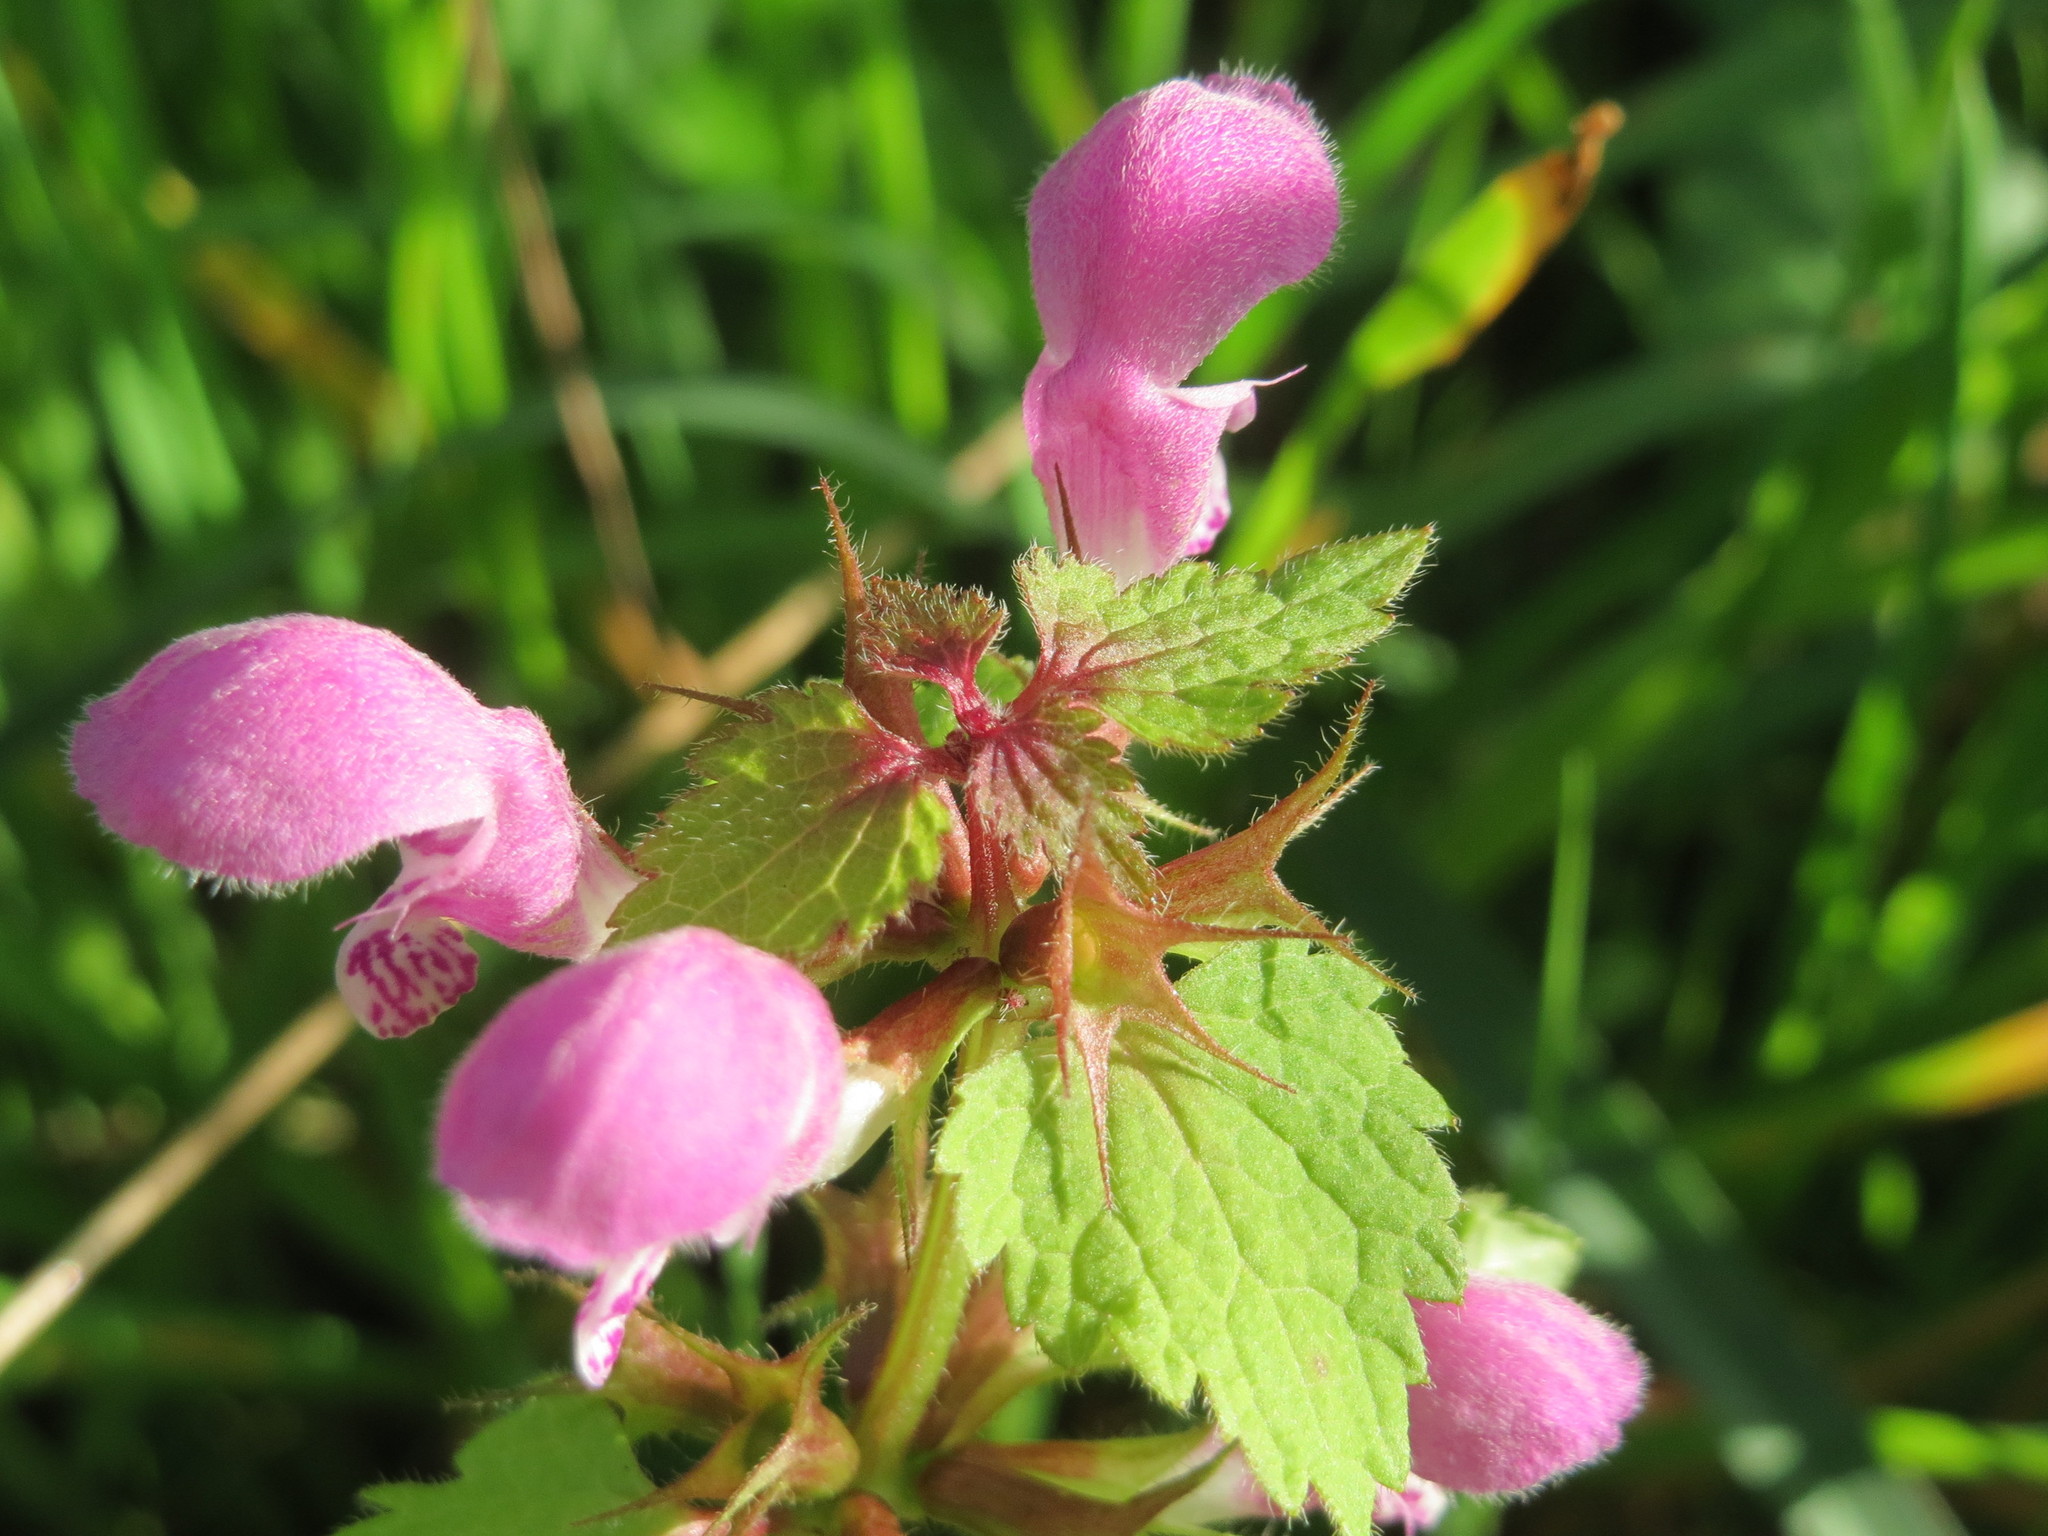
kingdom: Plantae
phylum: Tracheophyta
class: Magnoliopsida
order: Lamiales
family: Lamiaceae
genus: Lamium
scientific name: Lamium maculatum
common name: Spotted dead-nettle
